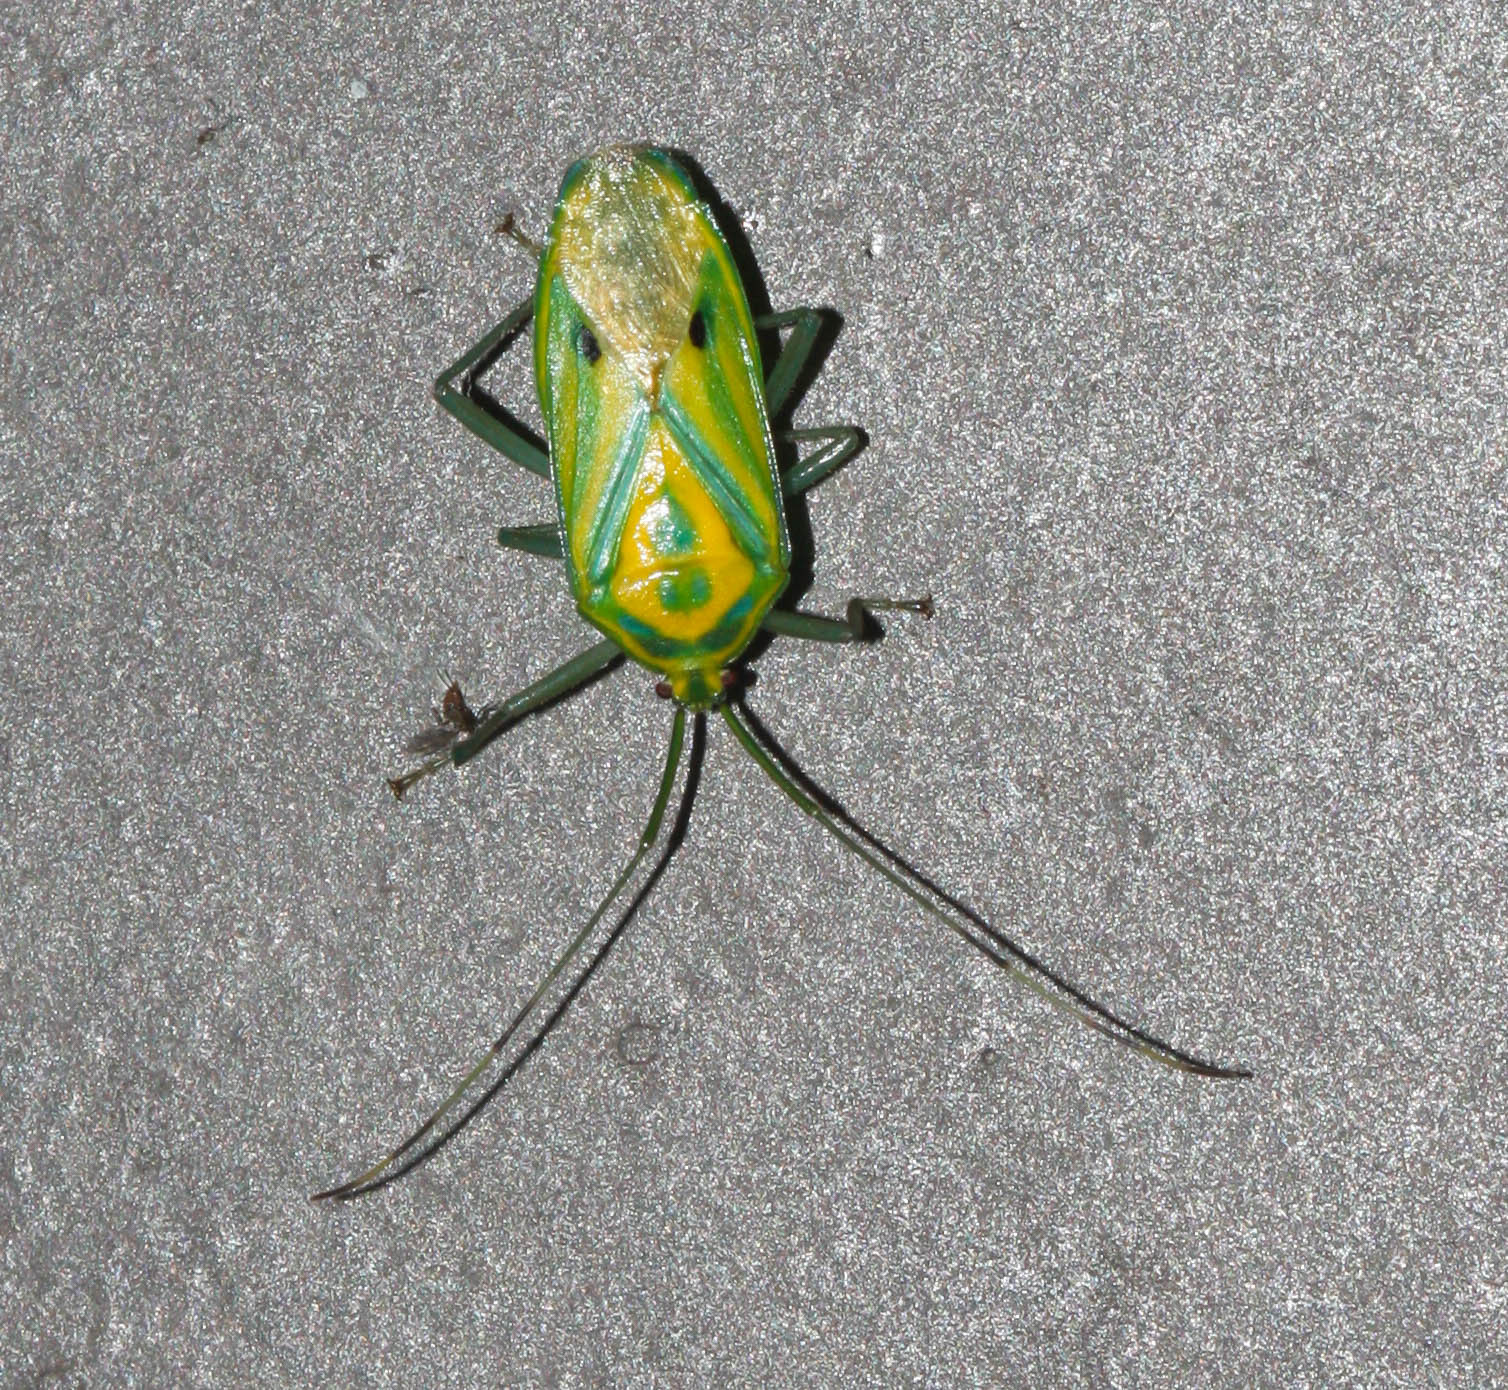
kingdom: Animalia
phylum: Arthropoda
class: Insecta
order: Hemiptera
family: Urostylididae
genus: Urolabida
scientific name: Urolabida
